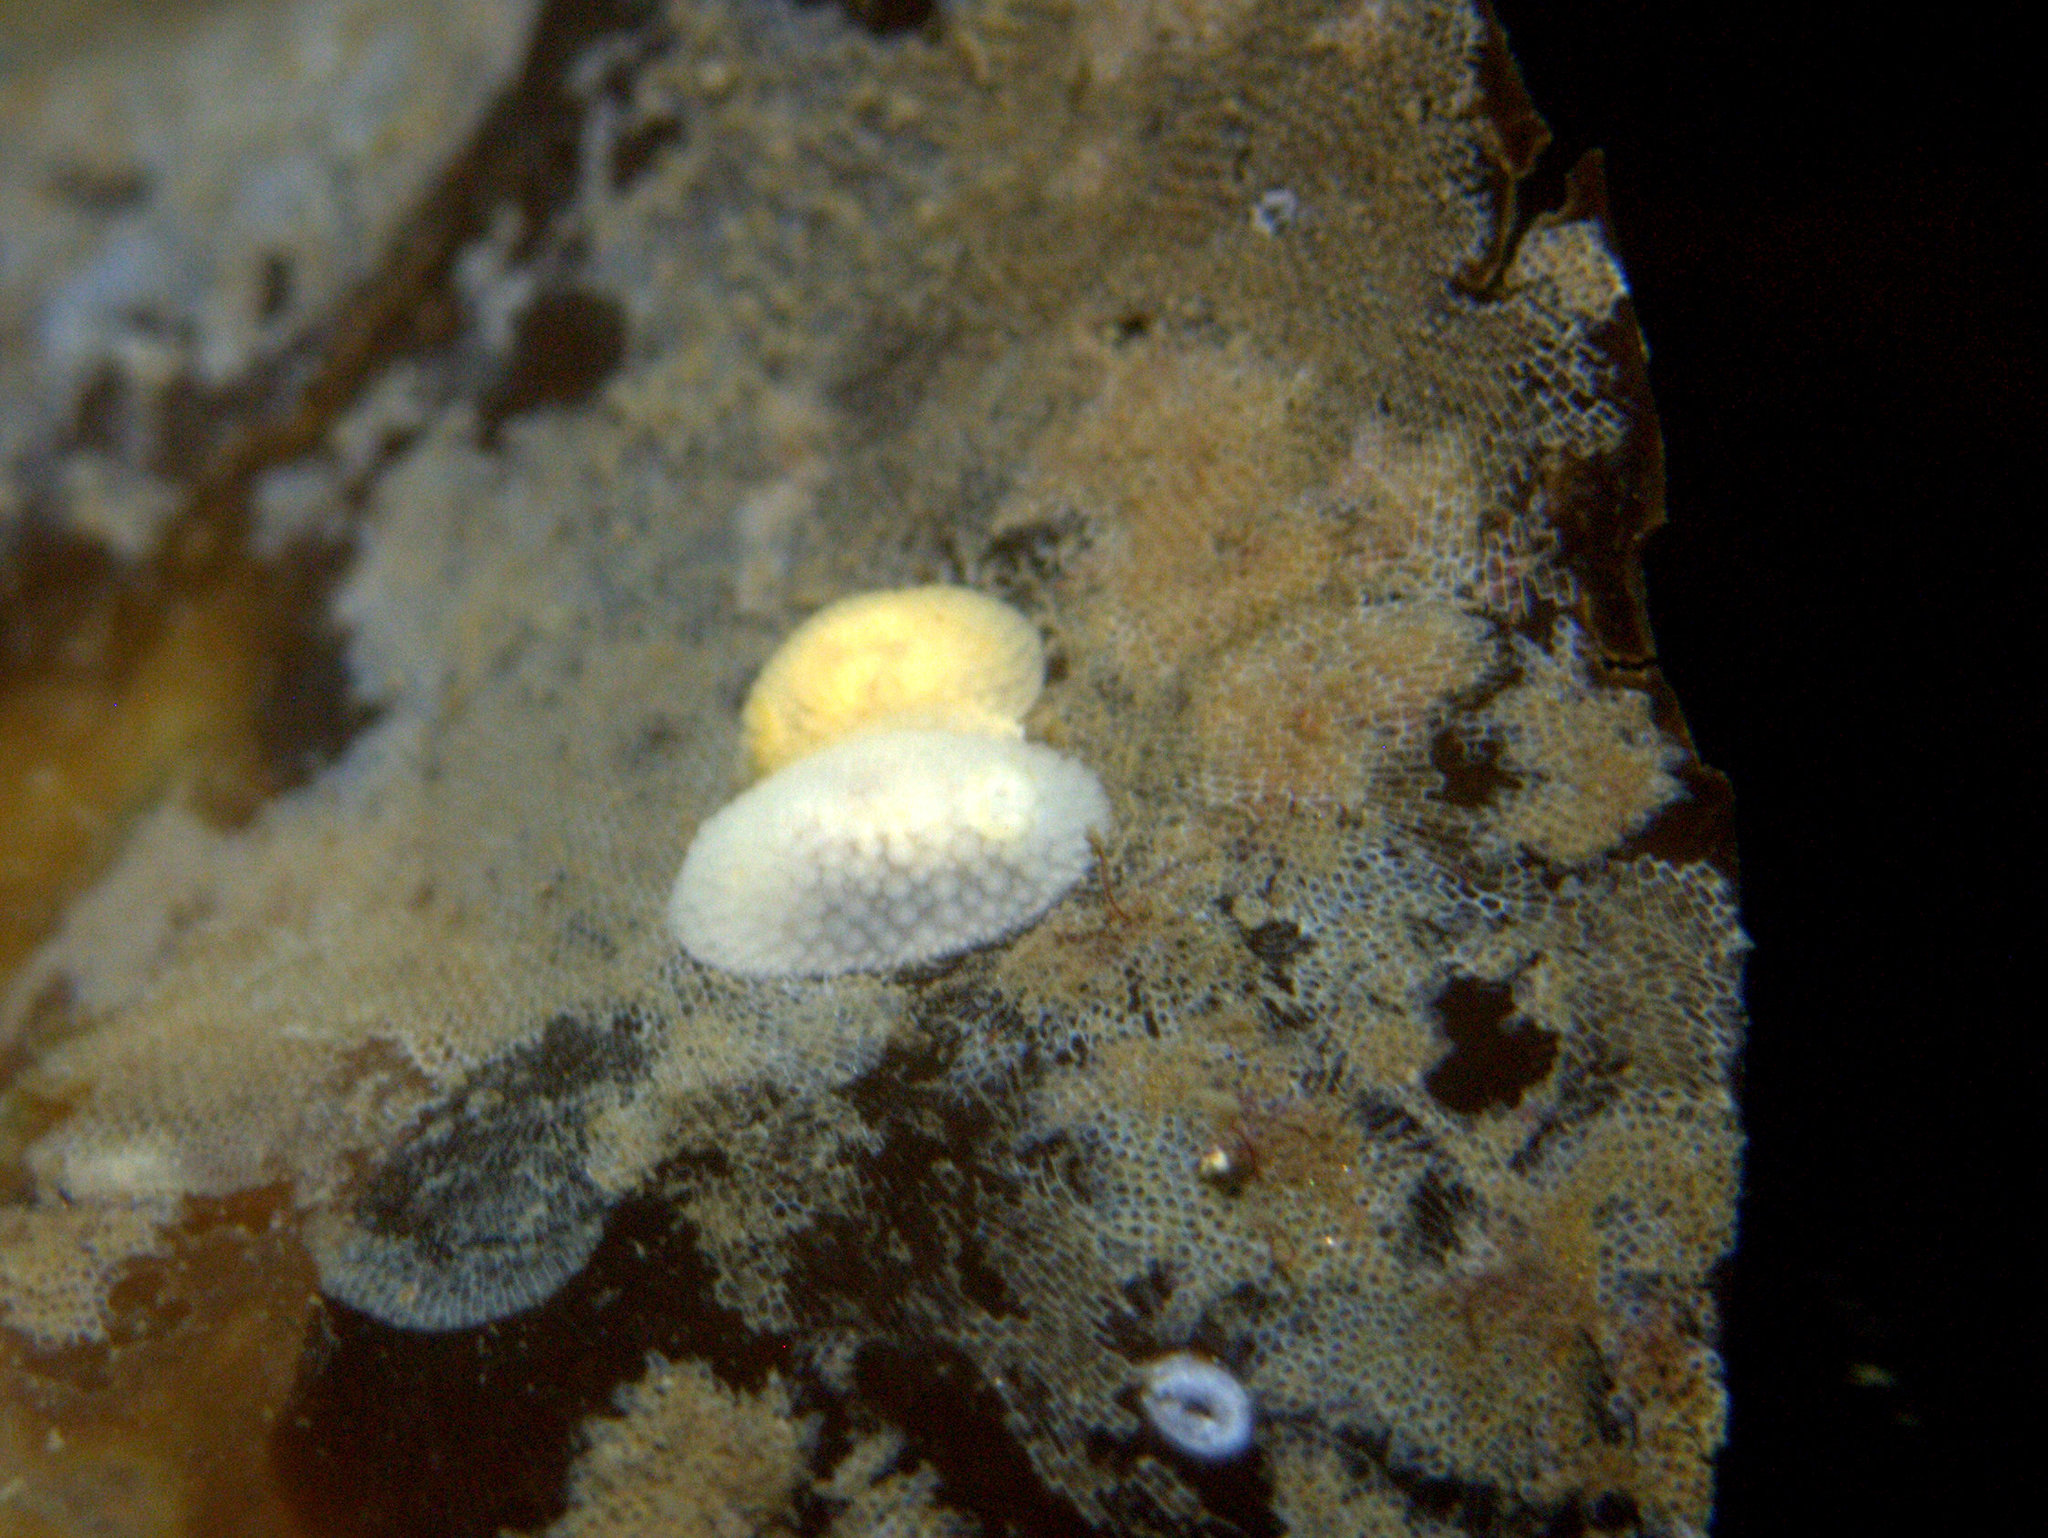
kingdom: Animalia
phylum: Mollusca
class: Gastropoda
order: Nudibranchia
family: Onchidorididae
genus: Onchidoris
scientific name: Onchidoris muricata
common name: Rough doris
